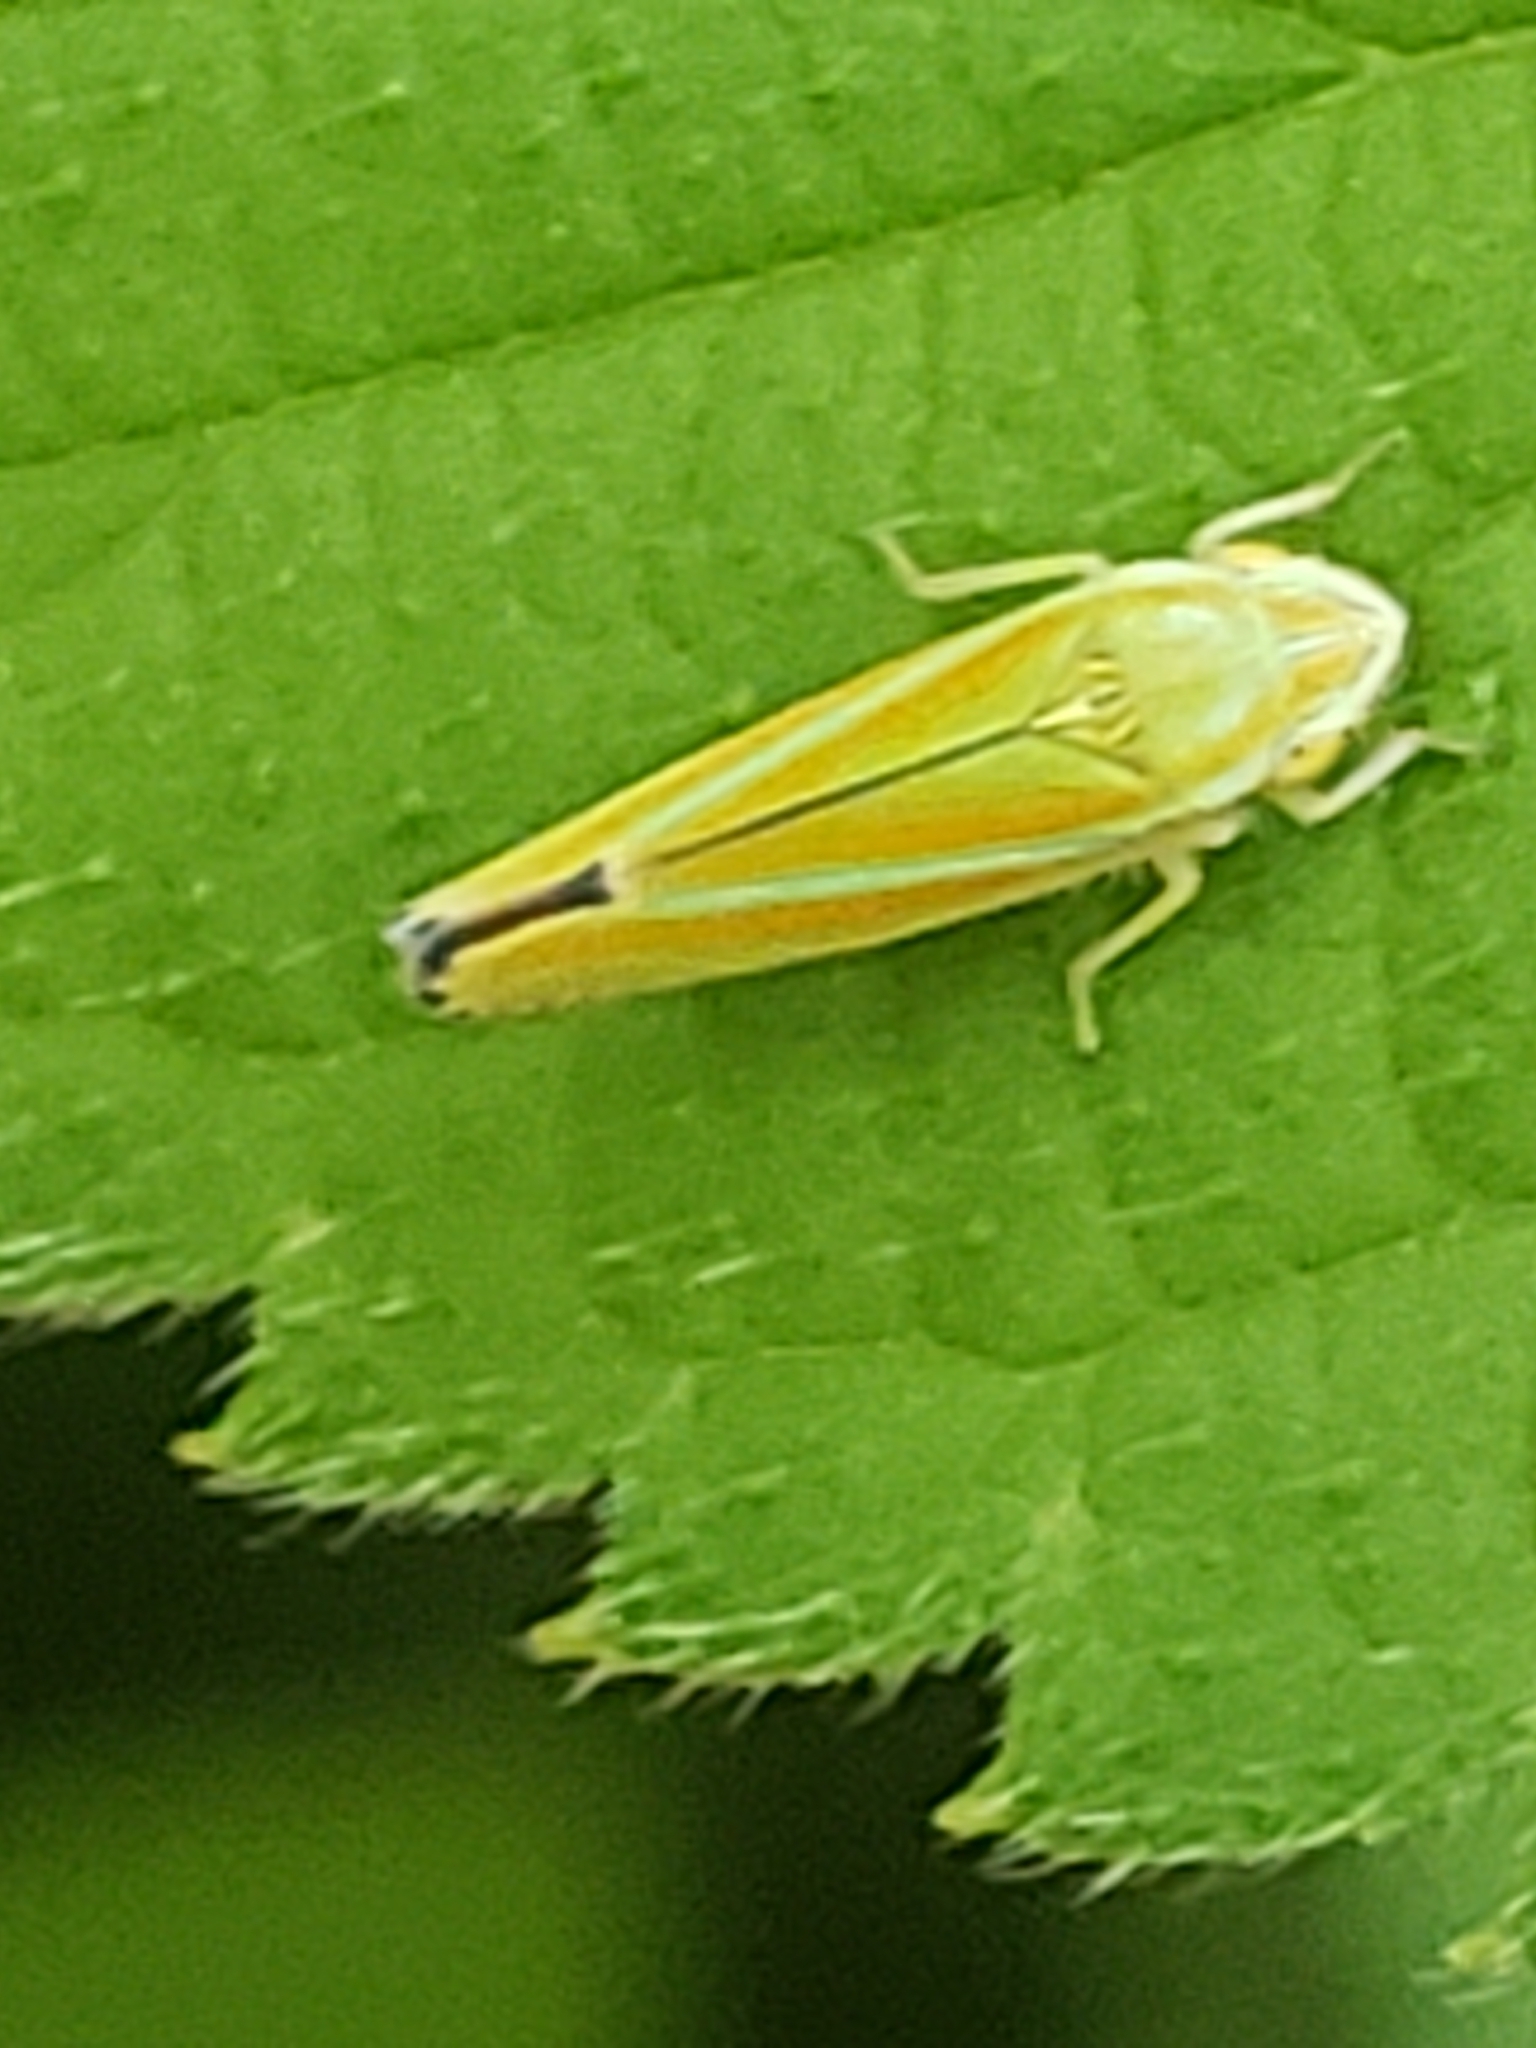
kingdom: Animalia
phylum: Arthropoda
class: Insecta
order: Hemiptera
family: Cicadellidae
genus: Graphocephala
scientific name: Graphocephala versuta
